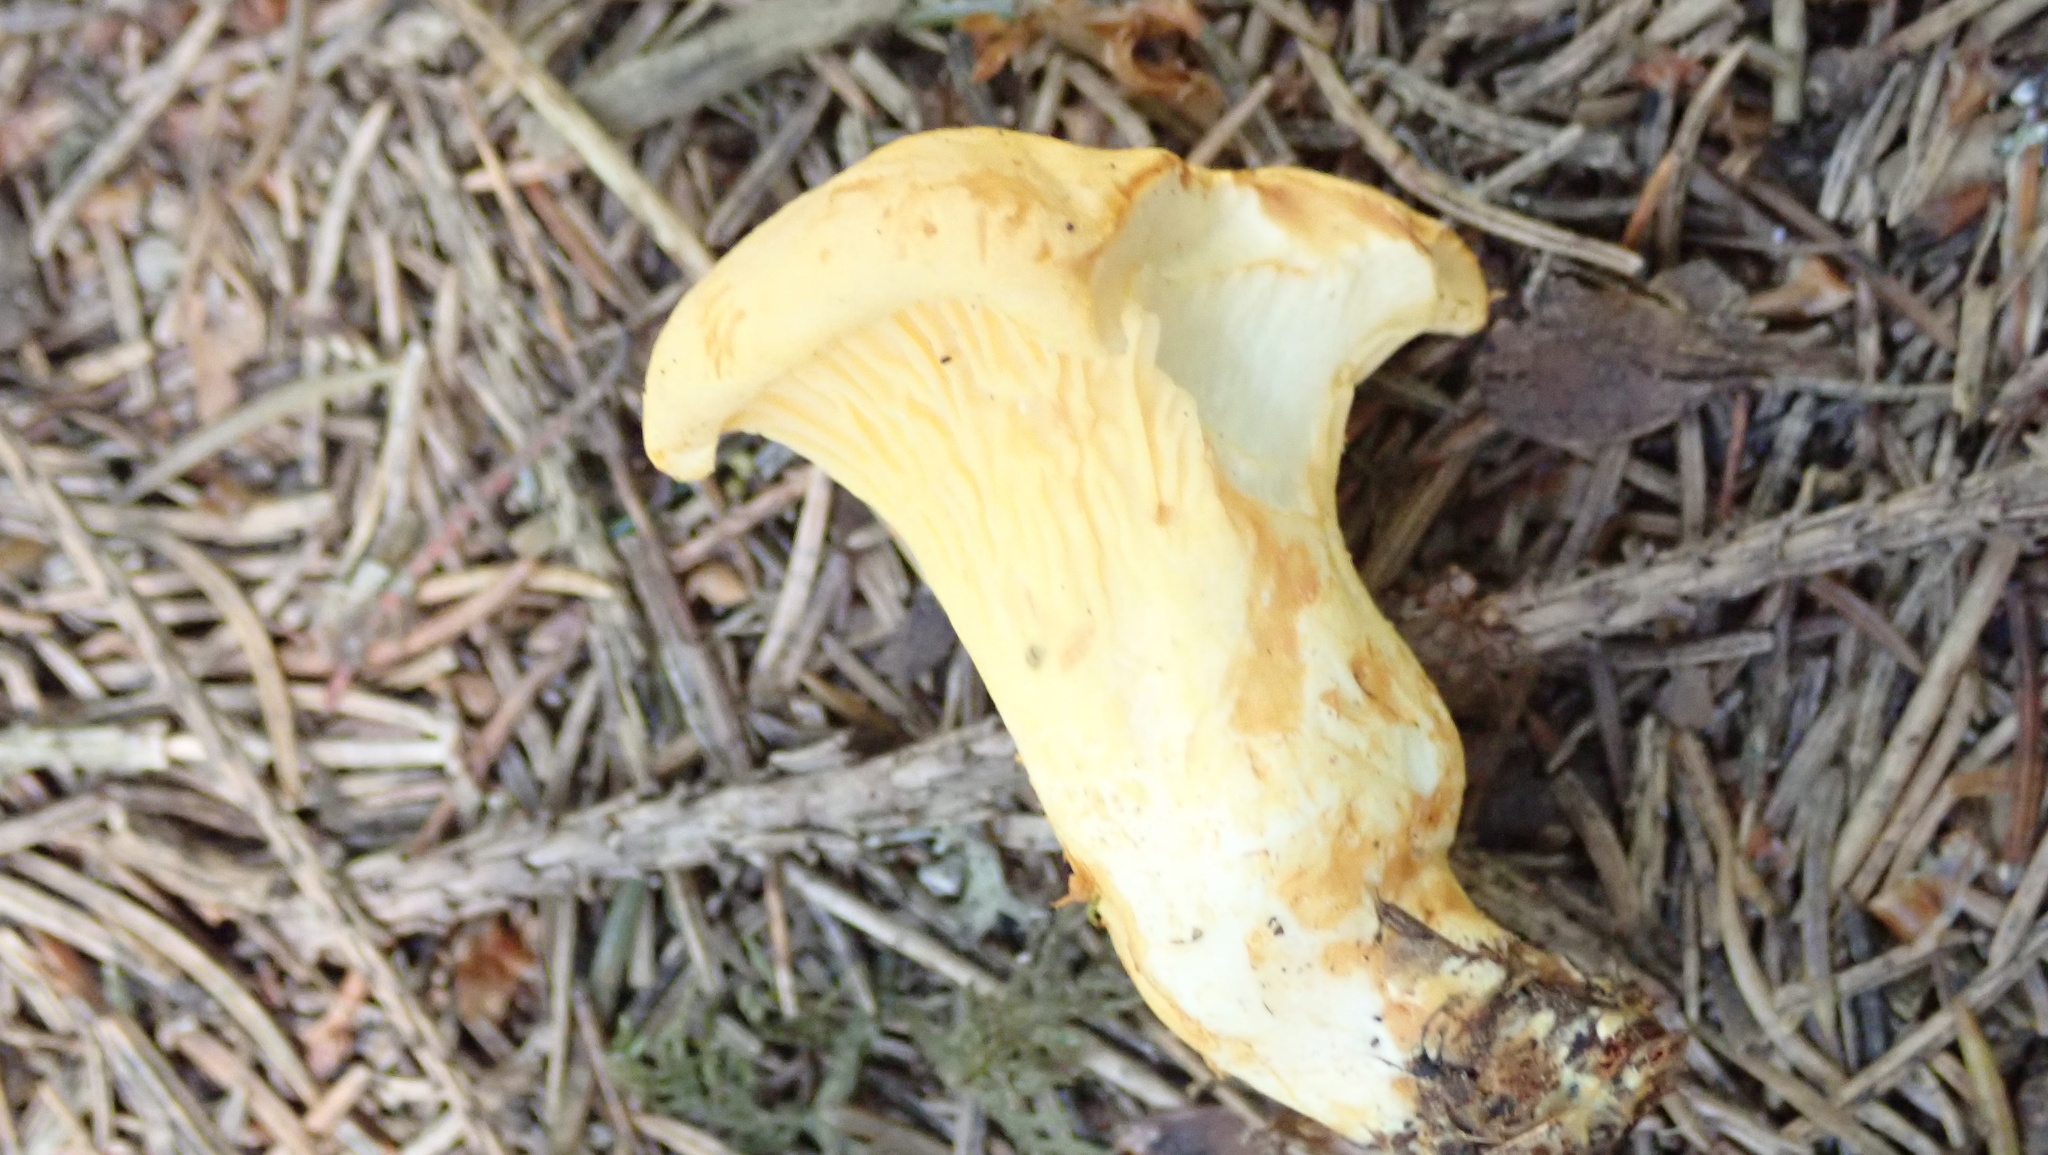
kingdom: Fungi
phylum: Basidiomycota
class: Agaricomycetes
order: Cantharellales
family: Hydnaceae
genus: Cantharellus
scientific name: Cantharellus cibarius
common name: Chanterelle
